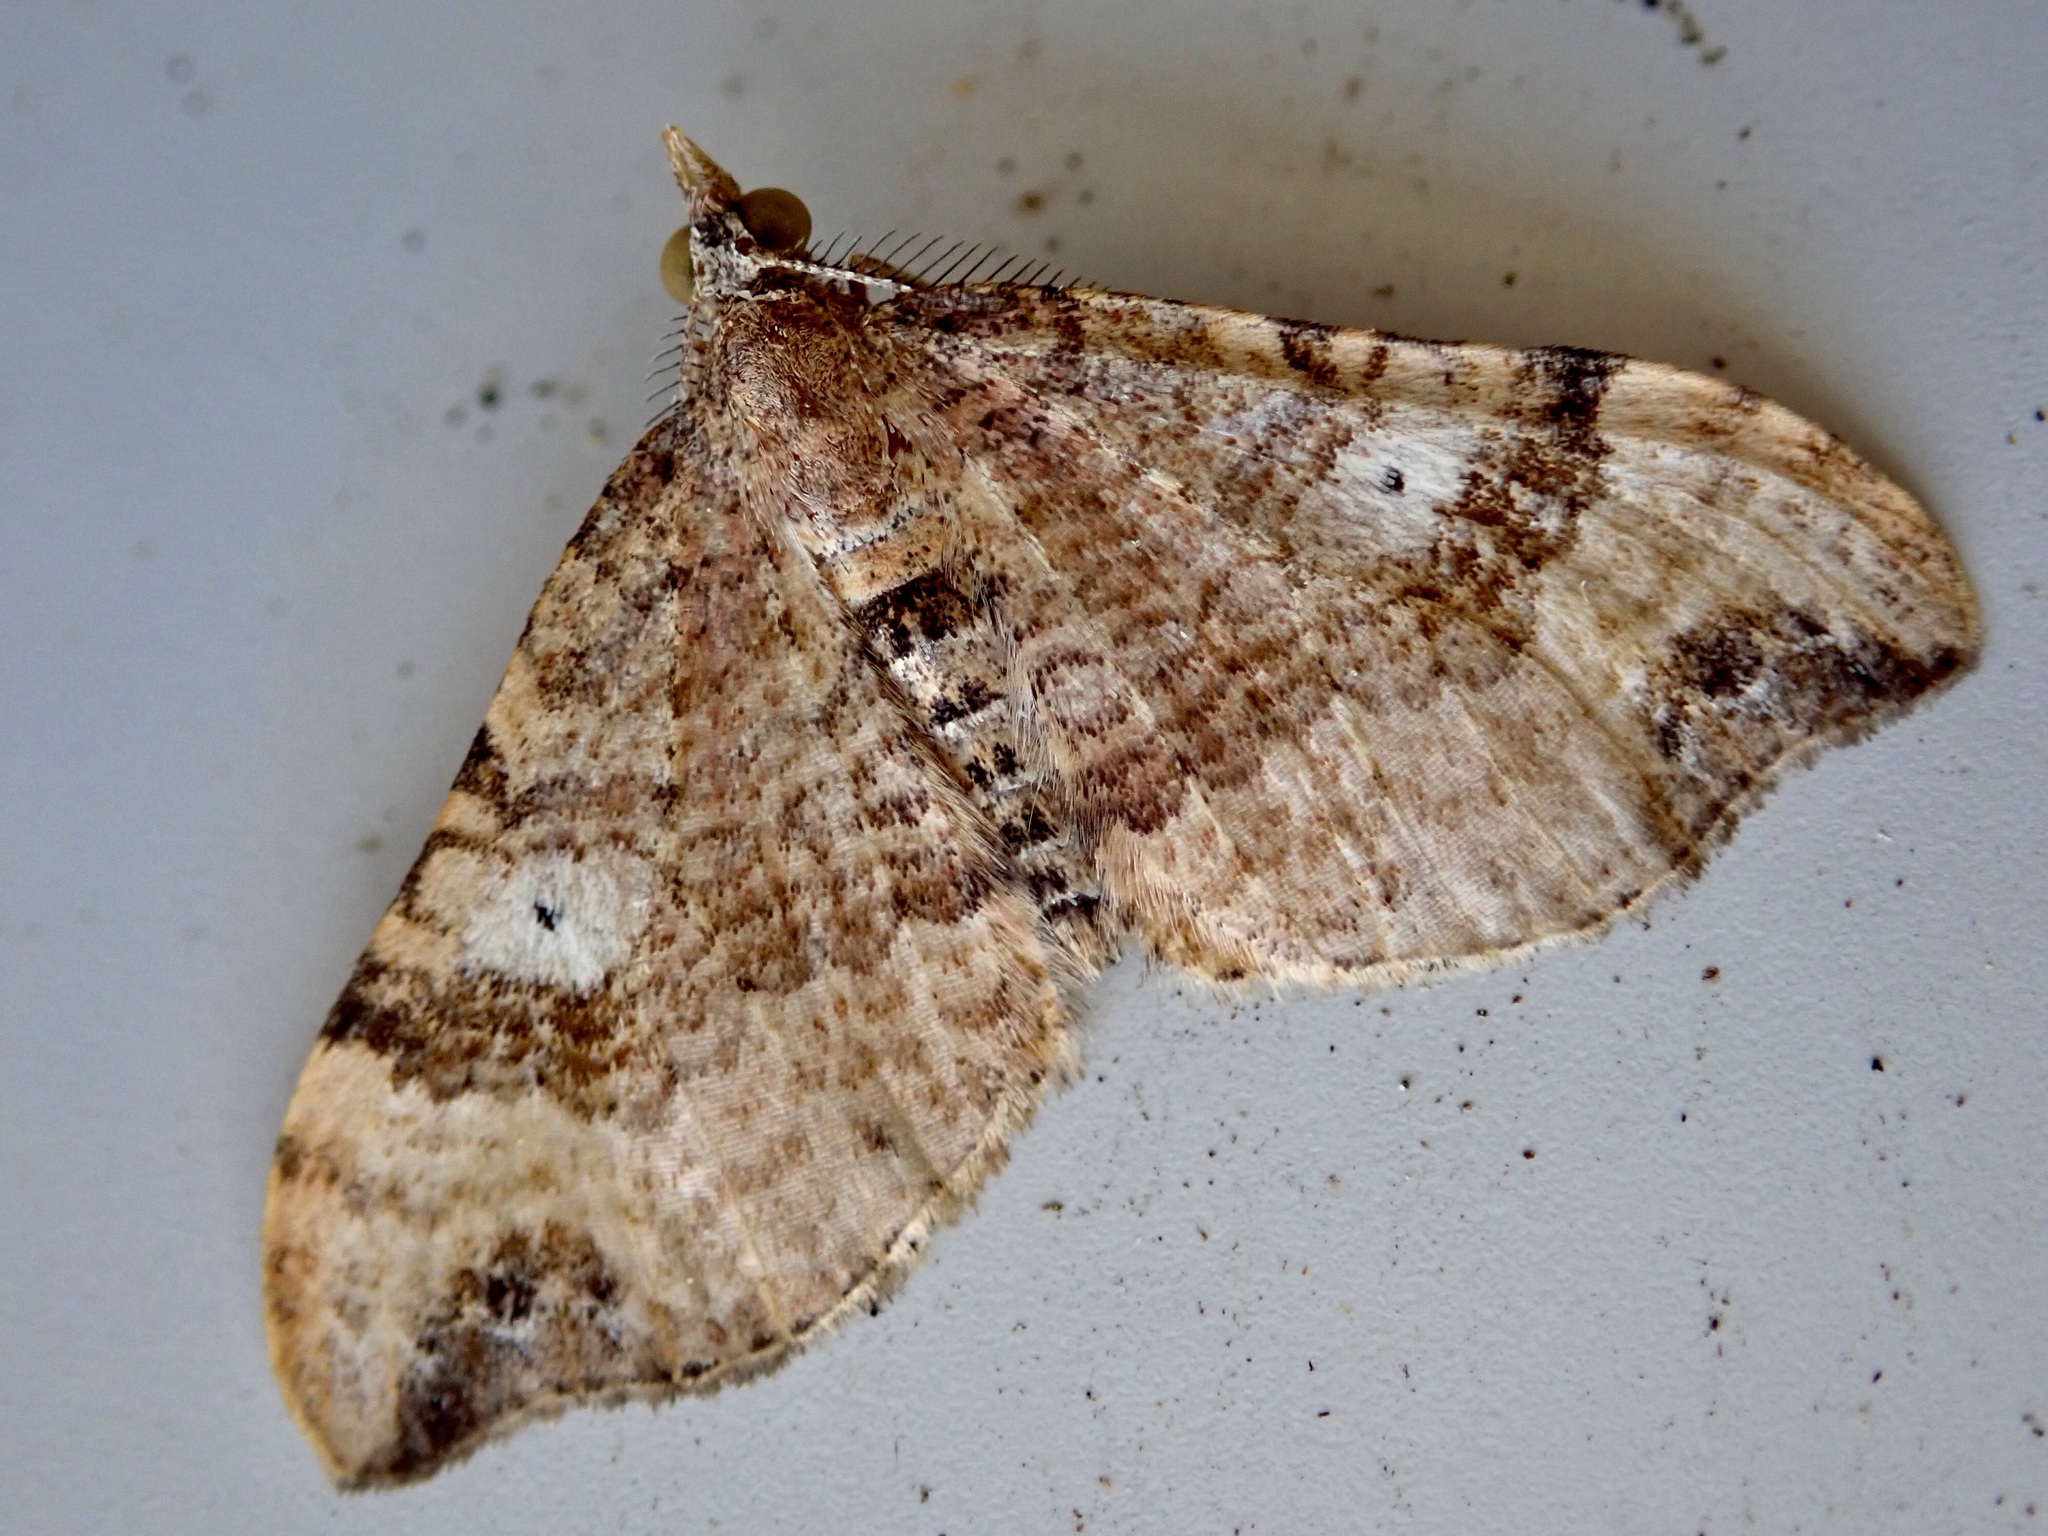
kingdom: Animalia
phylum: Arthropoda
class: Insecta
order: Lepidoptera
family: Geometridae
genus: Homodotis
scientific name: Homodotis megaspilata
